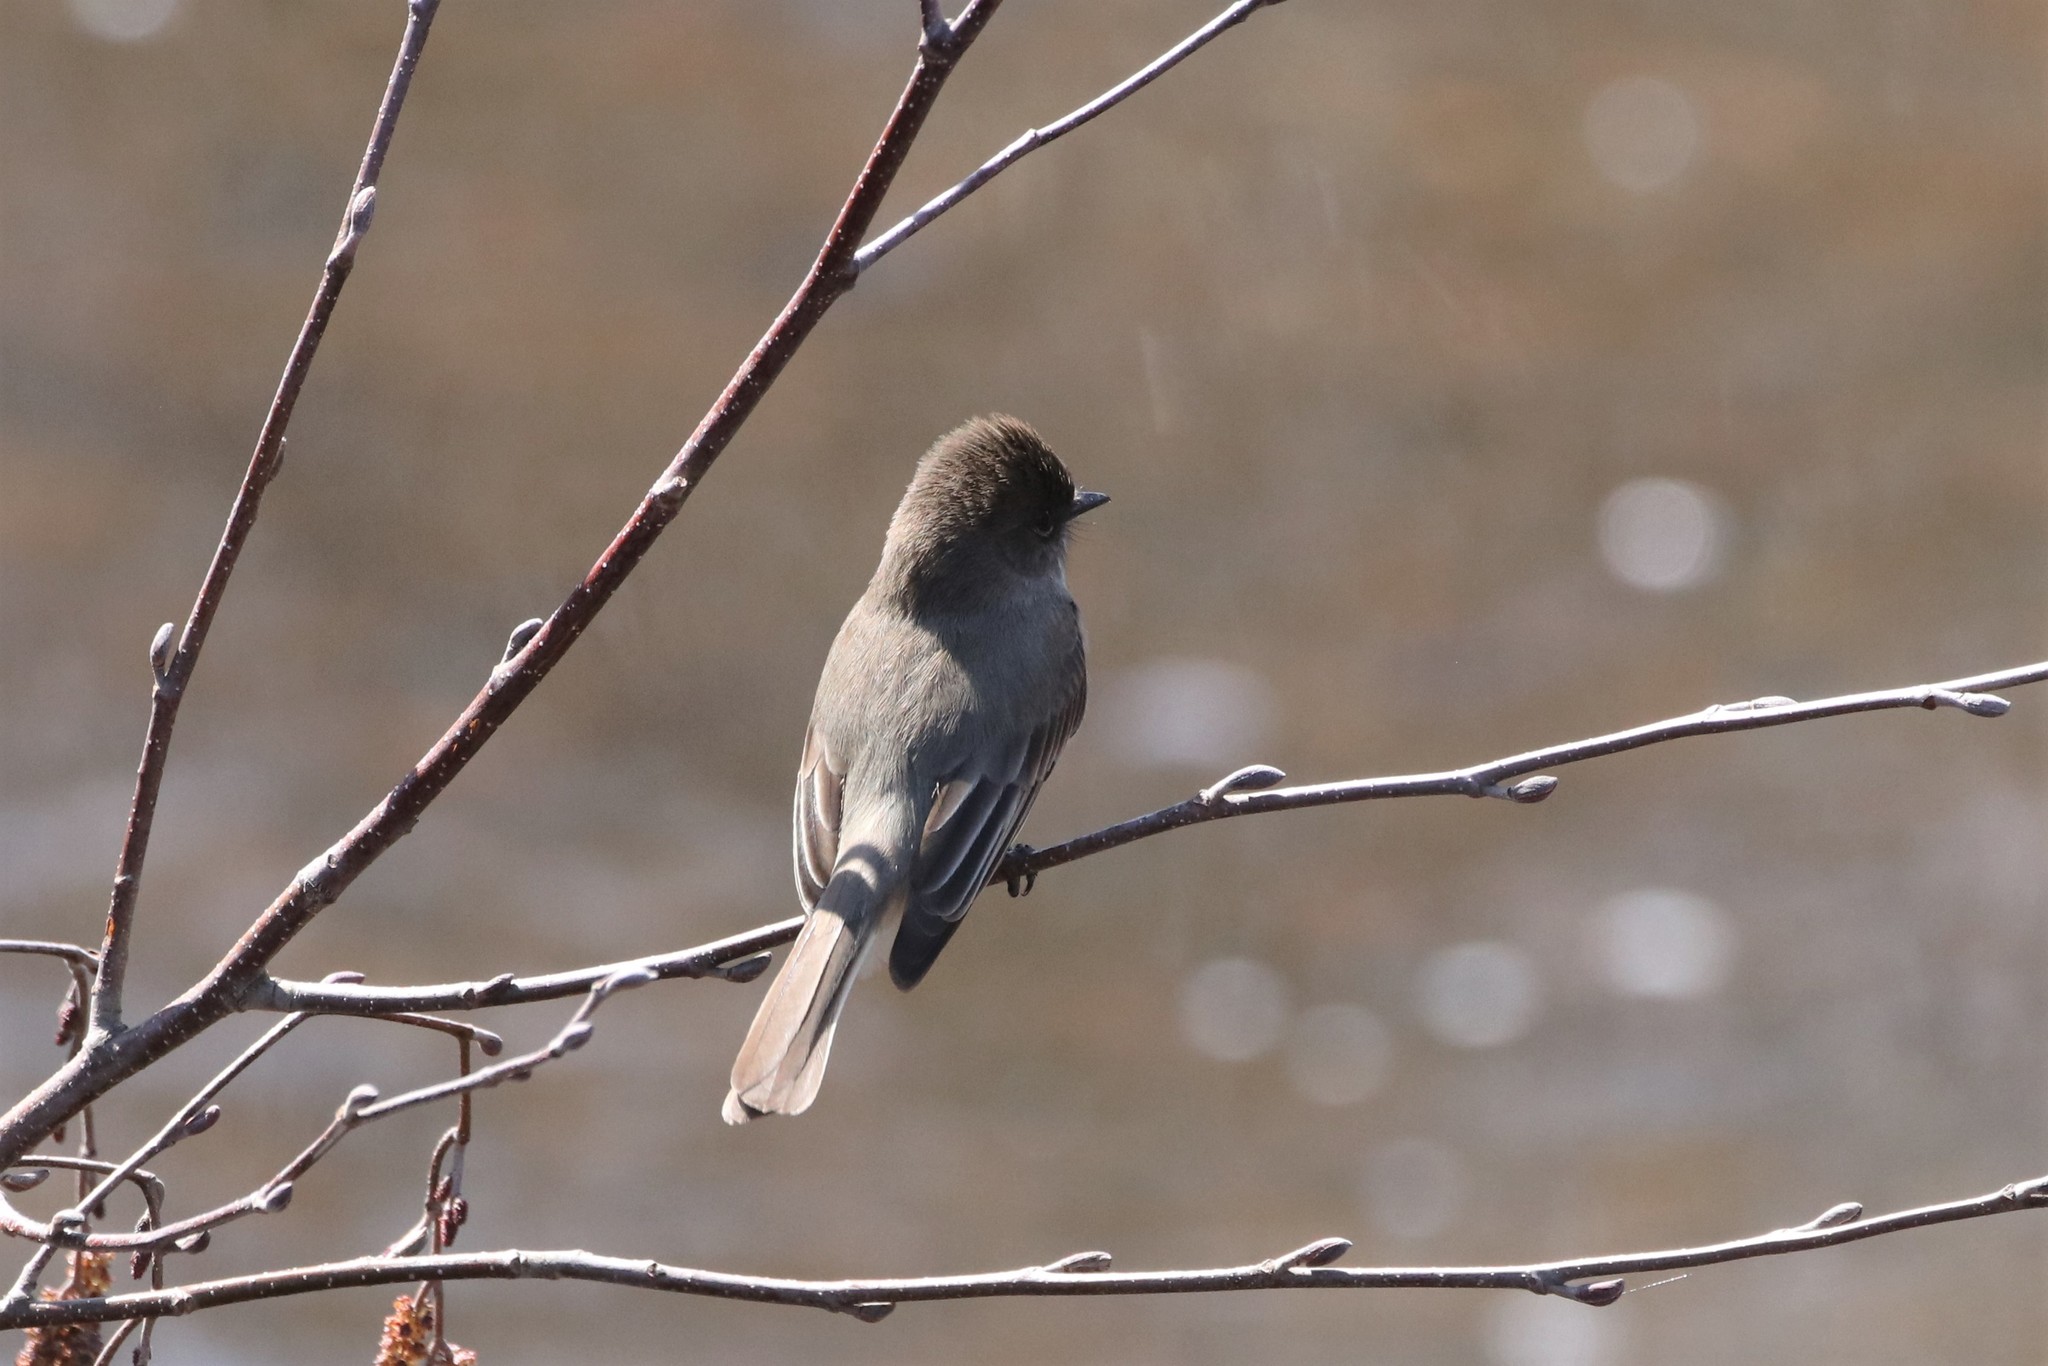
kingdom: Animalia
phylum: Chordata
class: Aves
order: Passeriformes
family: Tyrannidae
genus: Sayornis
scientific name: Sayornis phoebe
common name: Eastern phoebe
